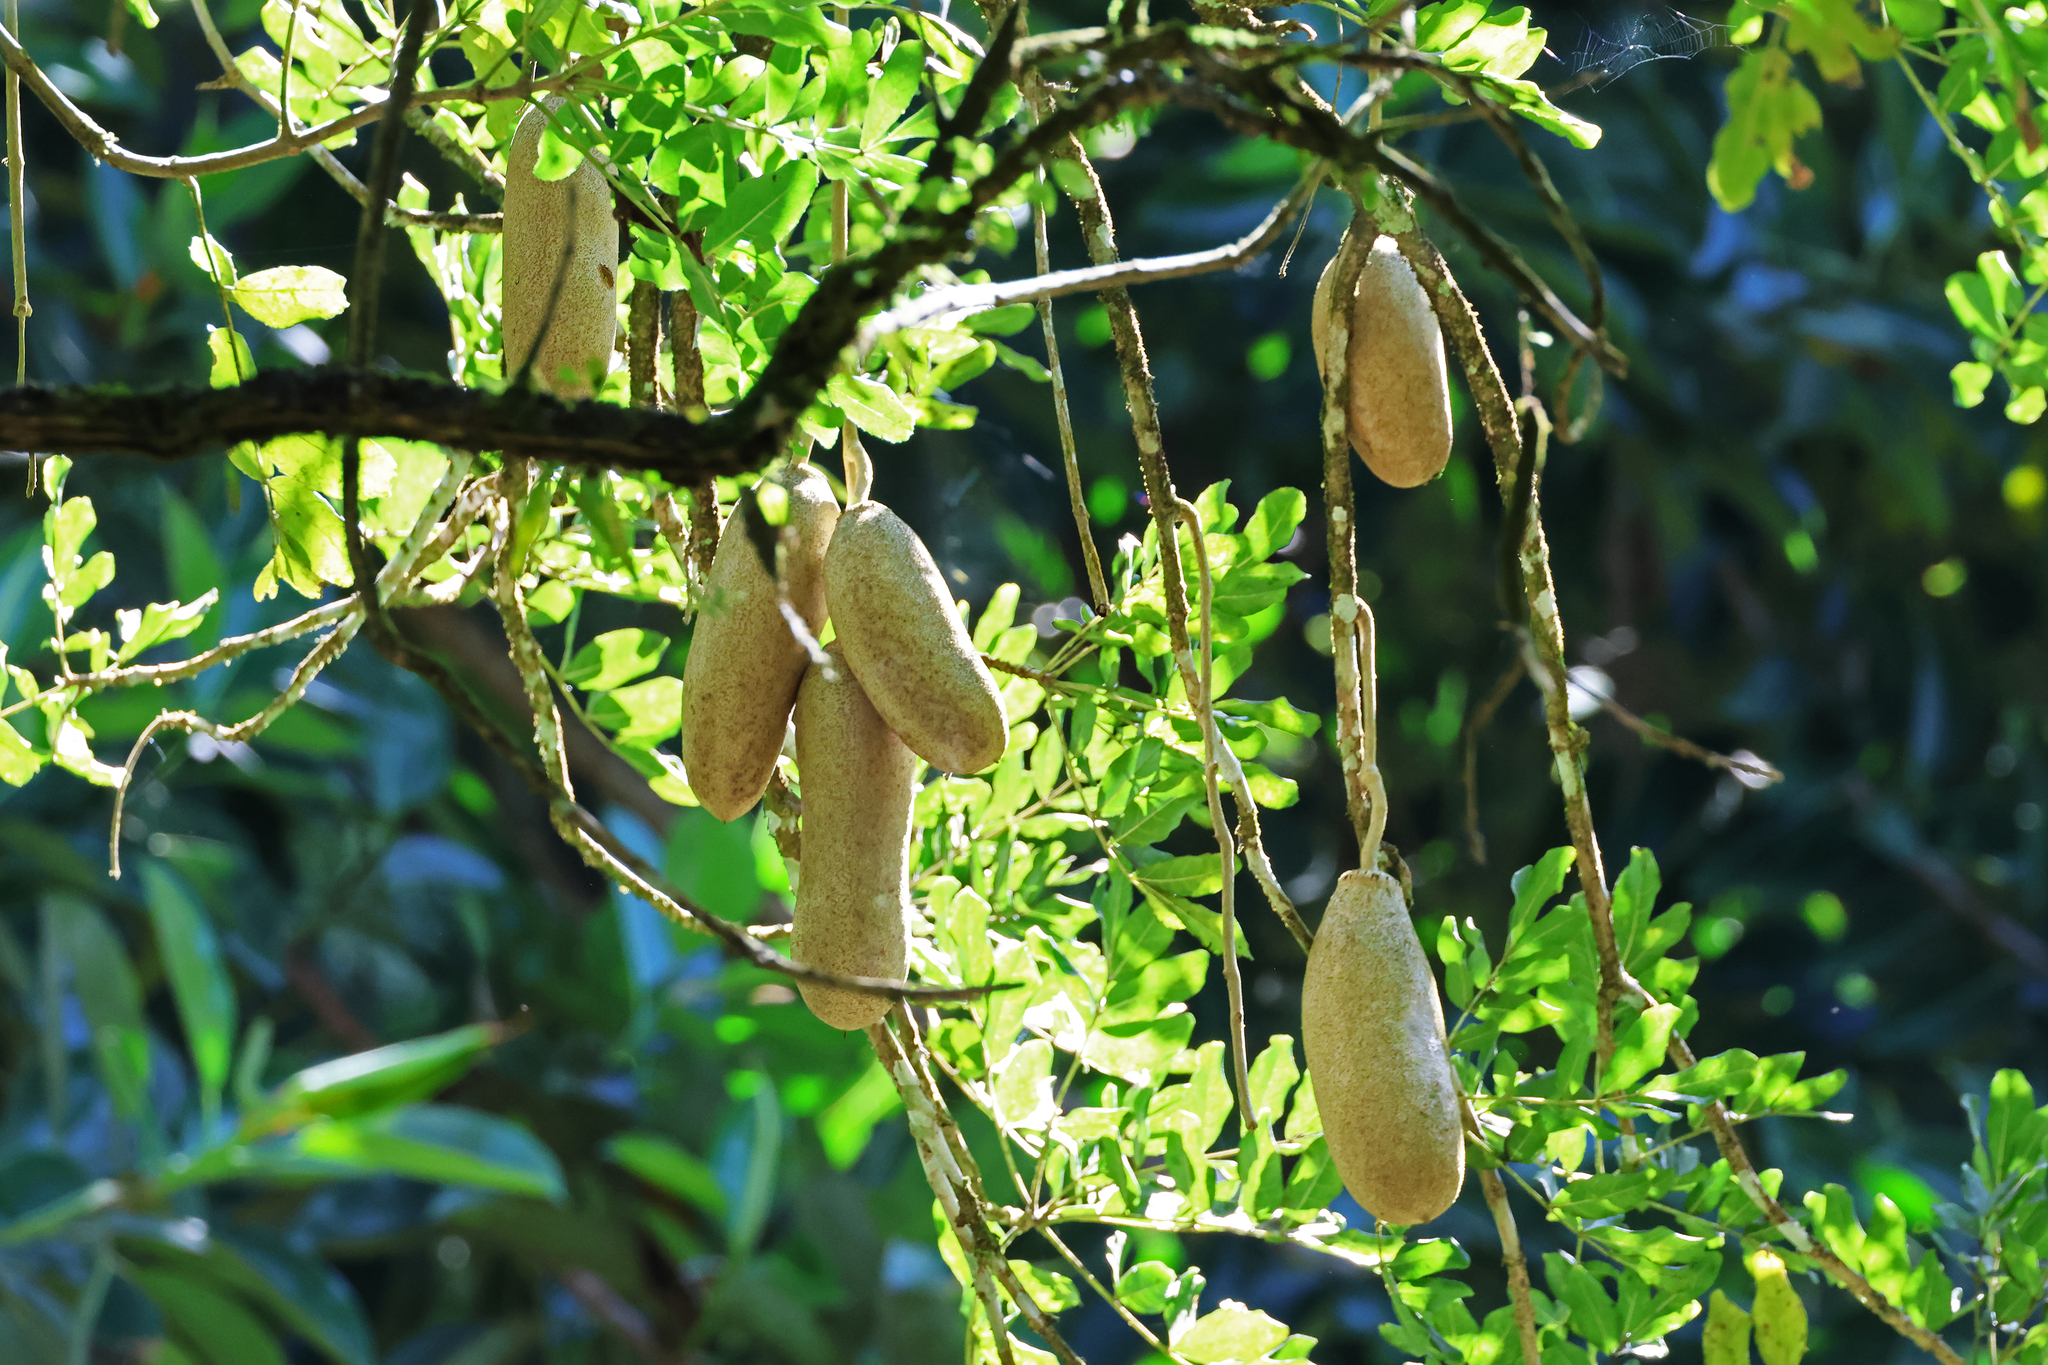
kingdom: Plantae
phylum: Tracheophyta
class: Magnoliopsida
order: Lamiales
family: Bignoniaceae
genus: Kigelia
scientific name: Kigelia africana
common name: Sausage tree
